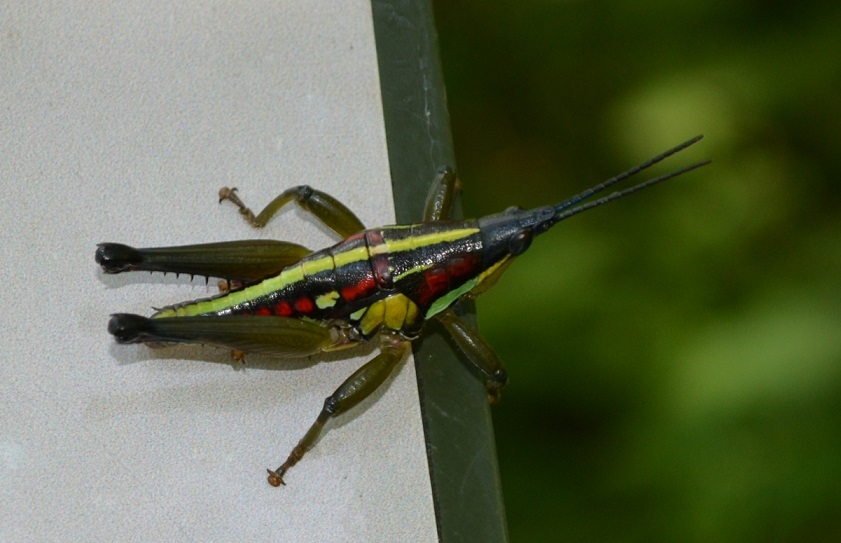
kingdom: Animalia
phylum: Arthropoda
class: Insecta
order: Orthoptera
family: Pyrgomorphidae
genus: Sphenarium
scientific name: Sphenarium histrio
